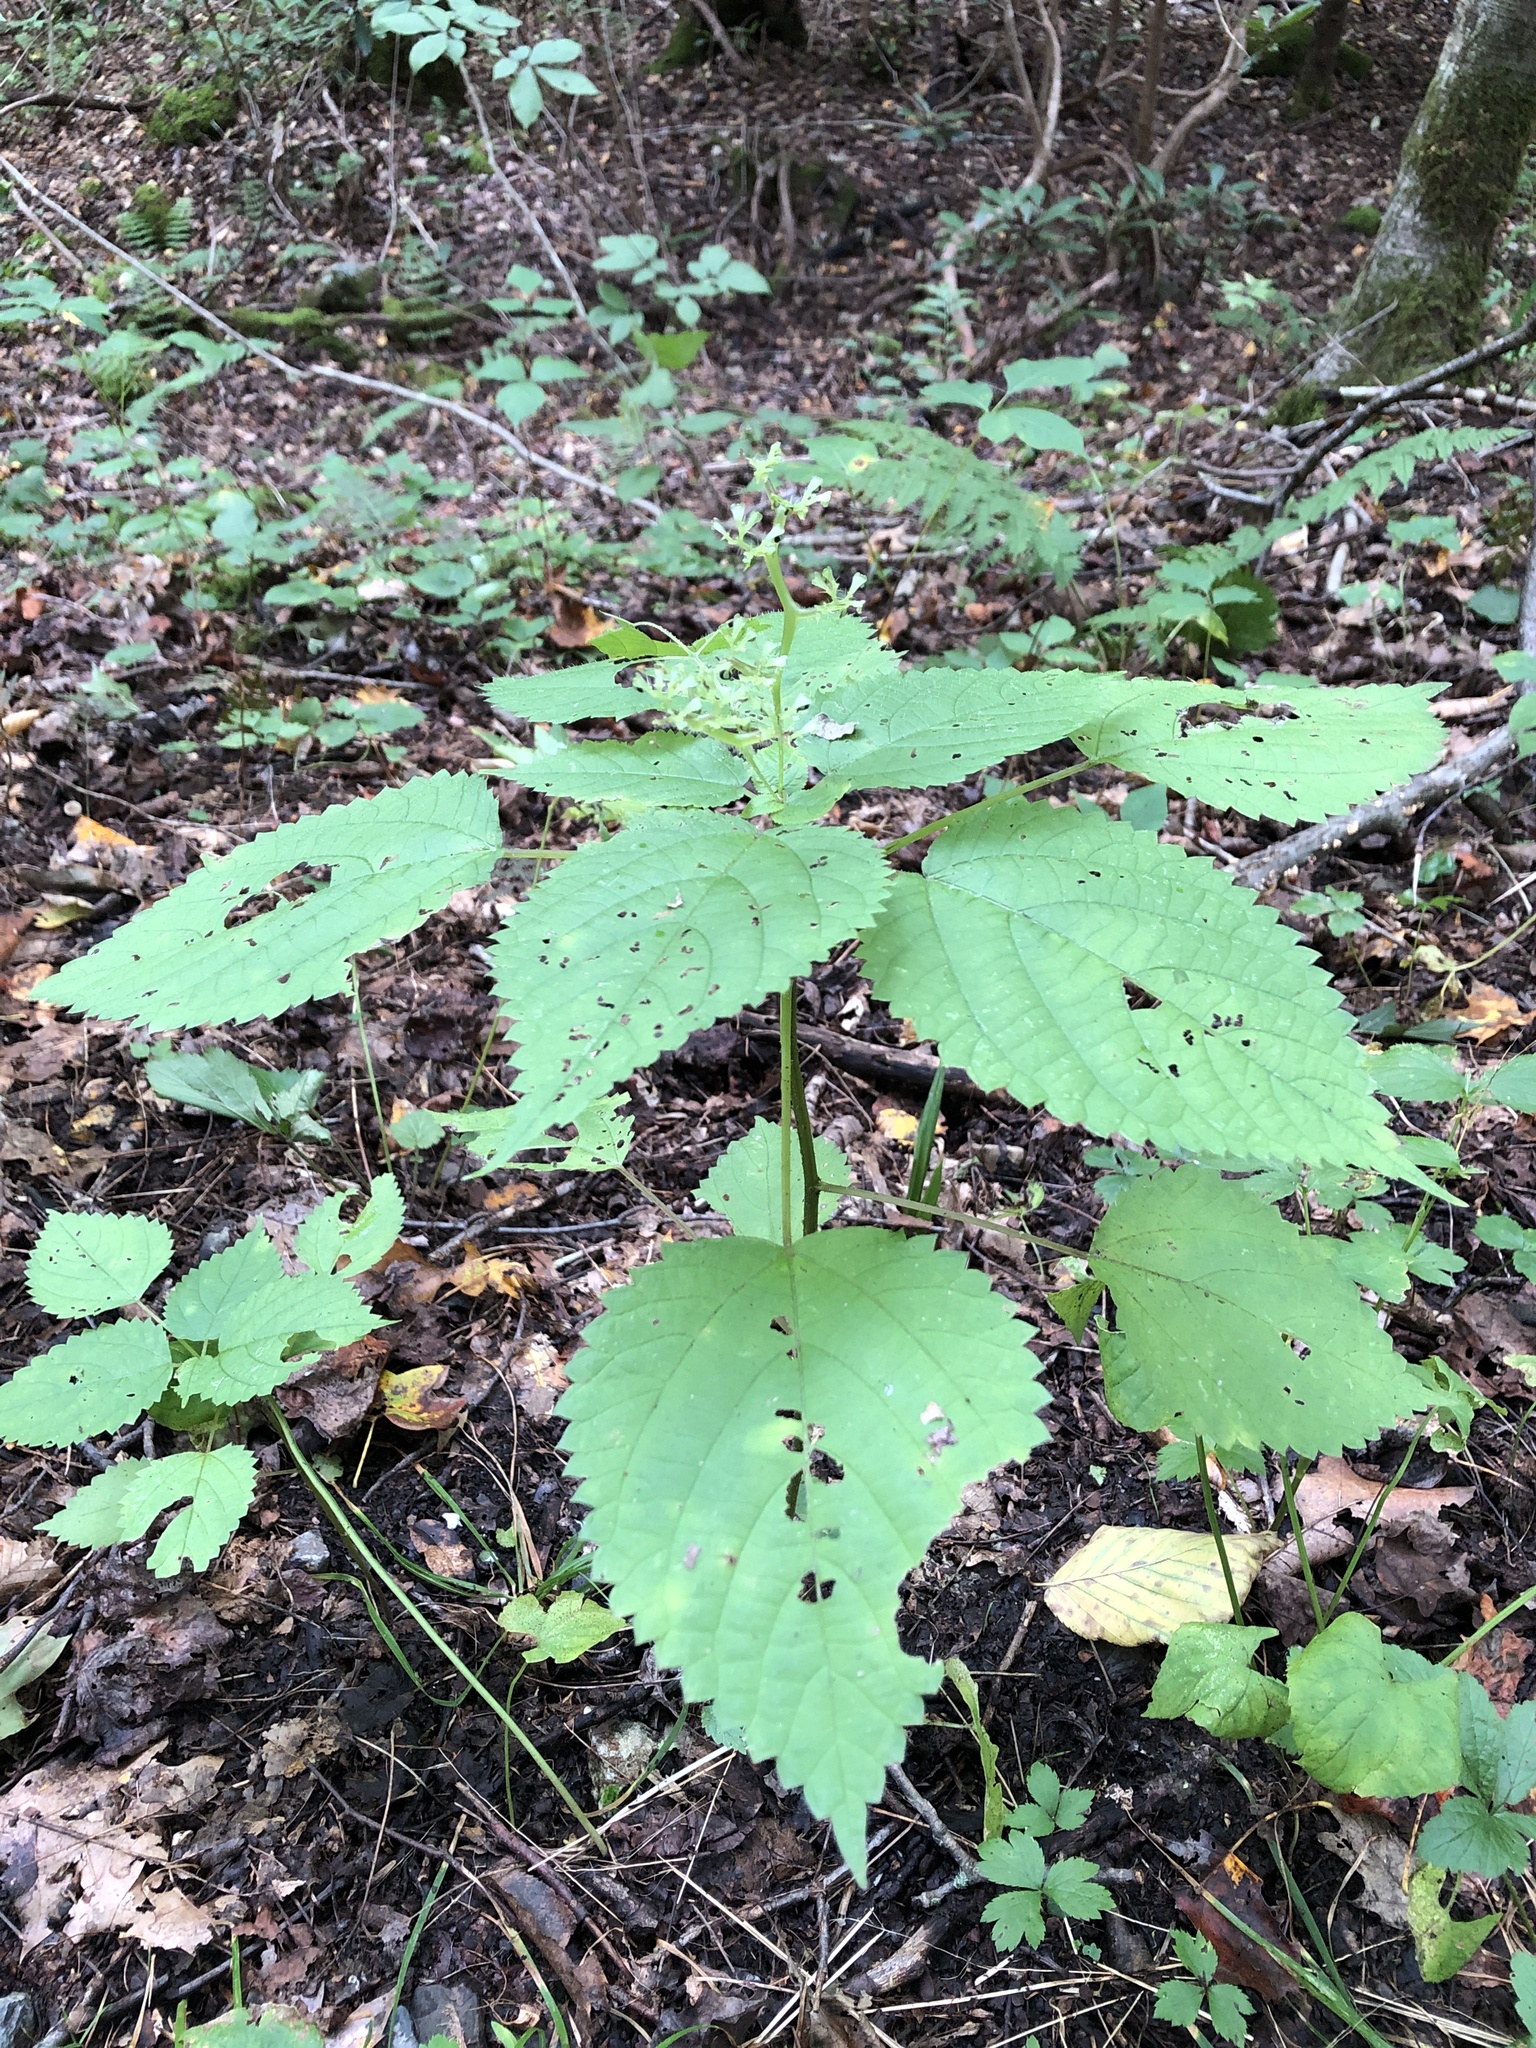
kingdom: Plantae
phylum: Tracheophyta
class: Magnoliopsida
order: Rosales
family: Urticaceae
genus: Laportea
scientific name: Laportea canadensis
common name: Canada nettle
